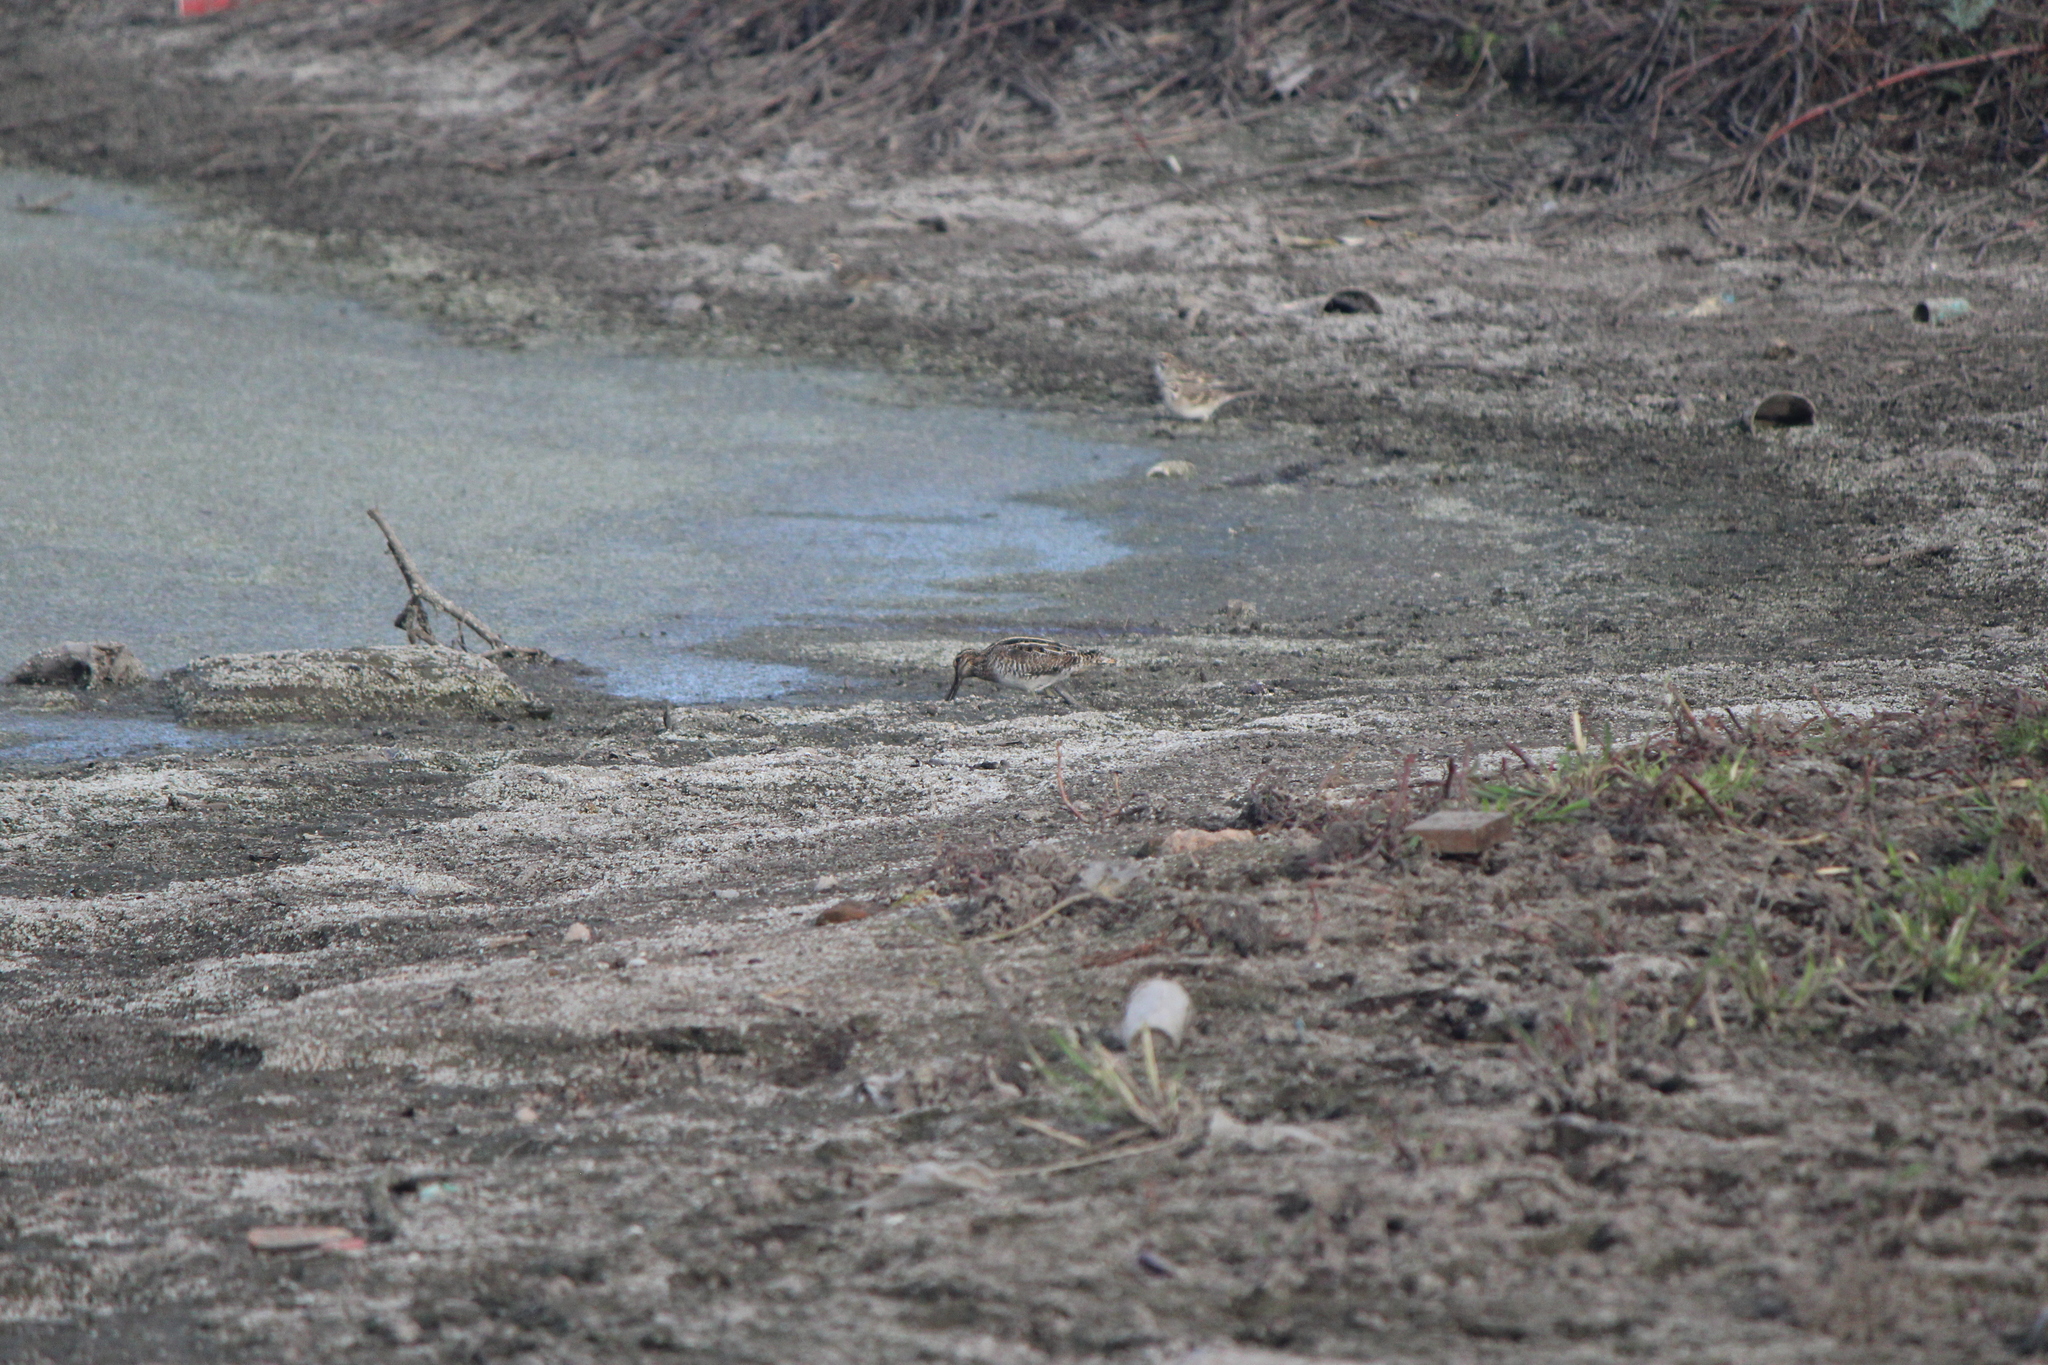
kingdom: Animalia
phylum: Chordata
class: Aves
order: Charadriiformes
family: Scolopacidae
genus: Gallinago
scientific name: Gallinago delicata
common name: Wilson's snipe
